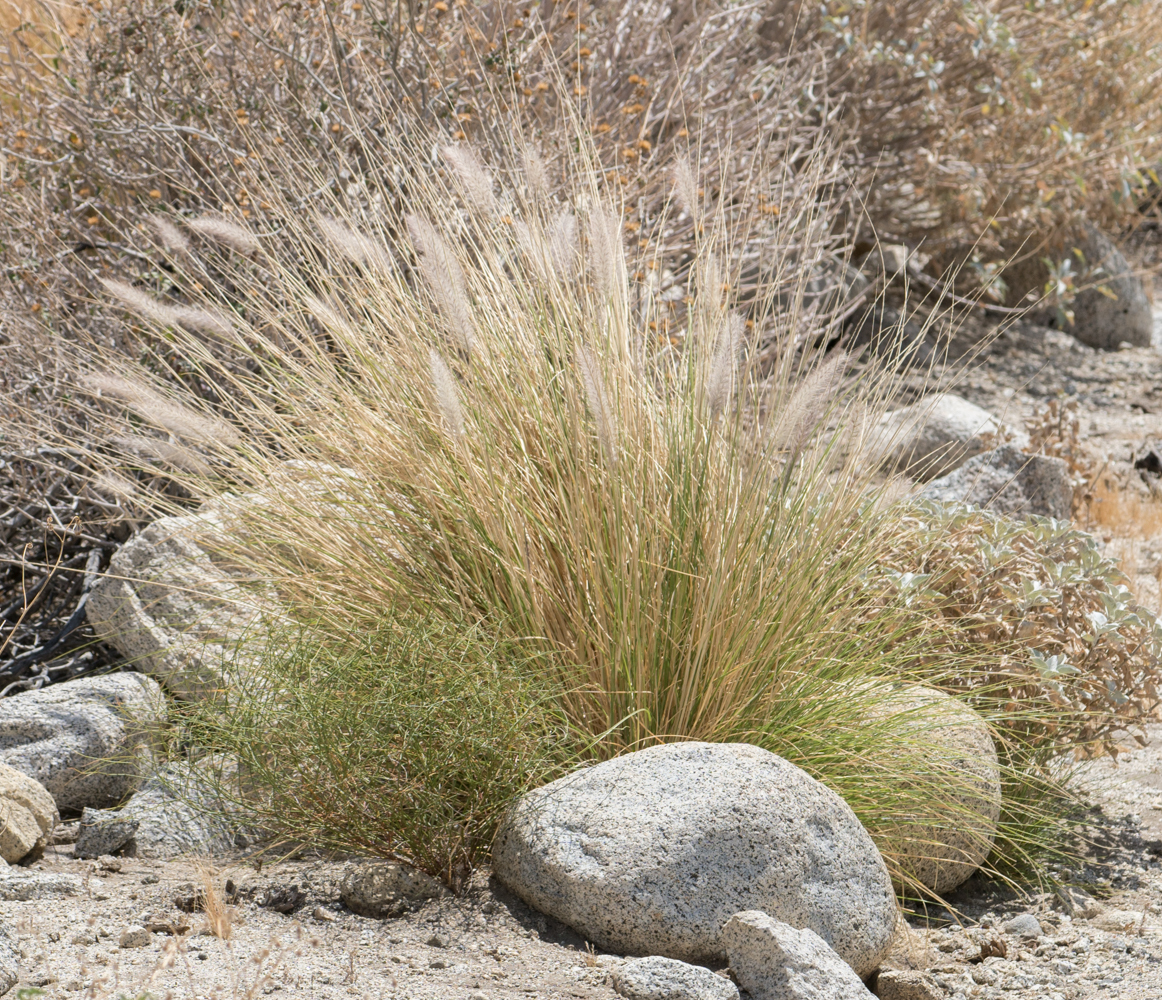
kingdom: Plantae
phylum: Tracheophyta
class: Liliopsida
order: Poales
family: Poaceae
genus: Cenchrus
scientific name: Cenchrus setaceus
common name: Crimson fountaingrass
